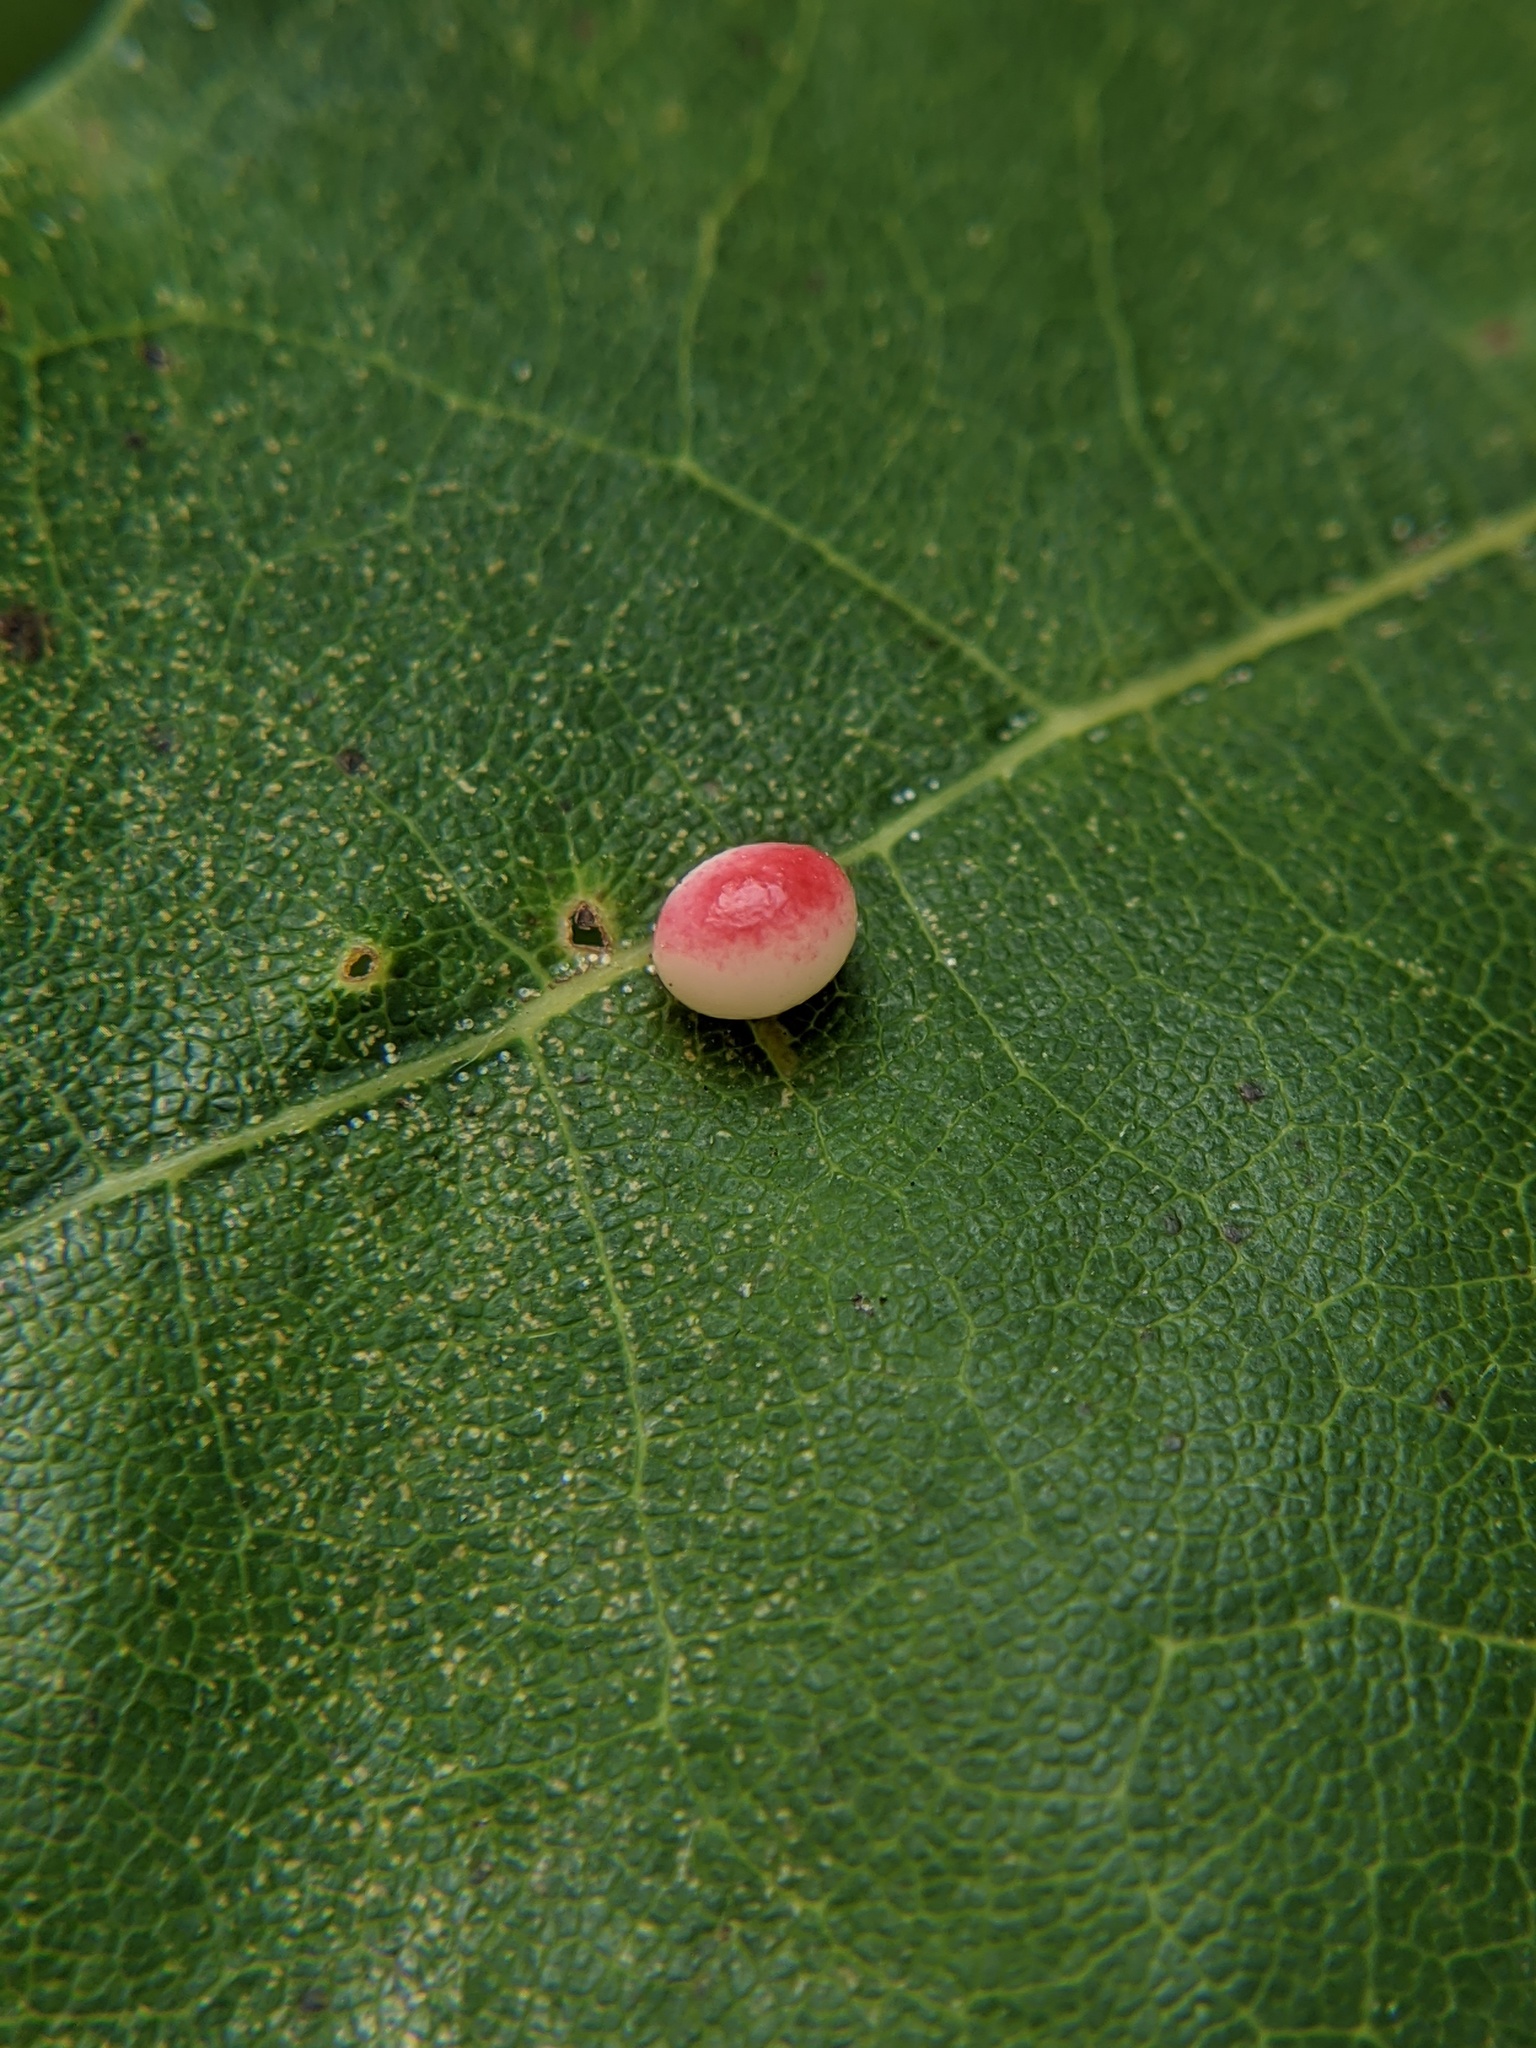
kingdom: Animalia
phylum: Arthropoda
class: Insecta
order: Hymenoptera
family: Cynipidae
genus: Zopheroteras
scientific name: Zopheroteras
